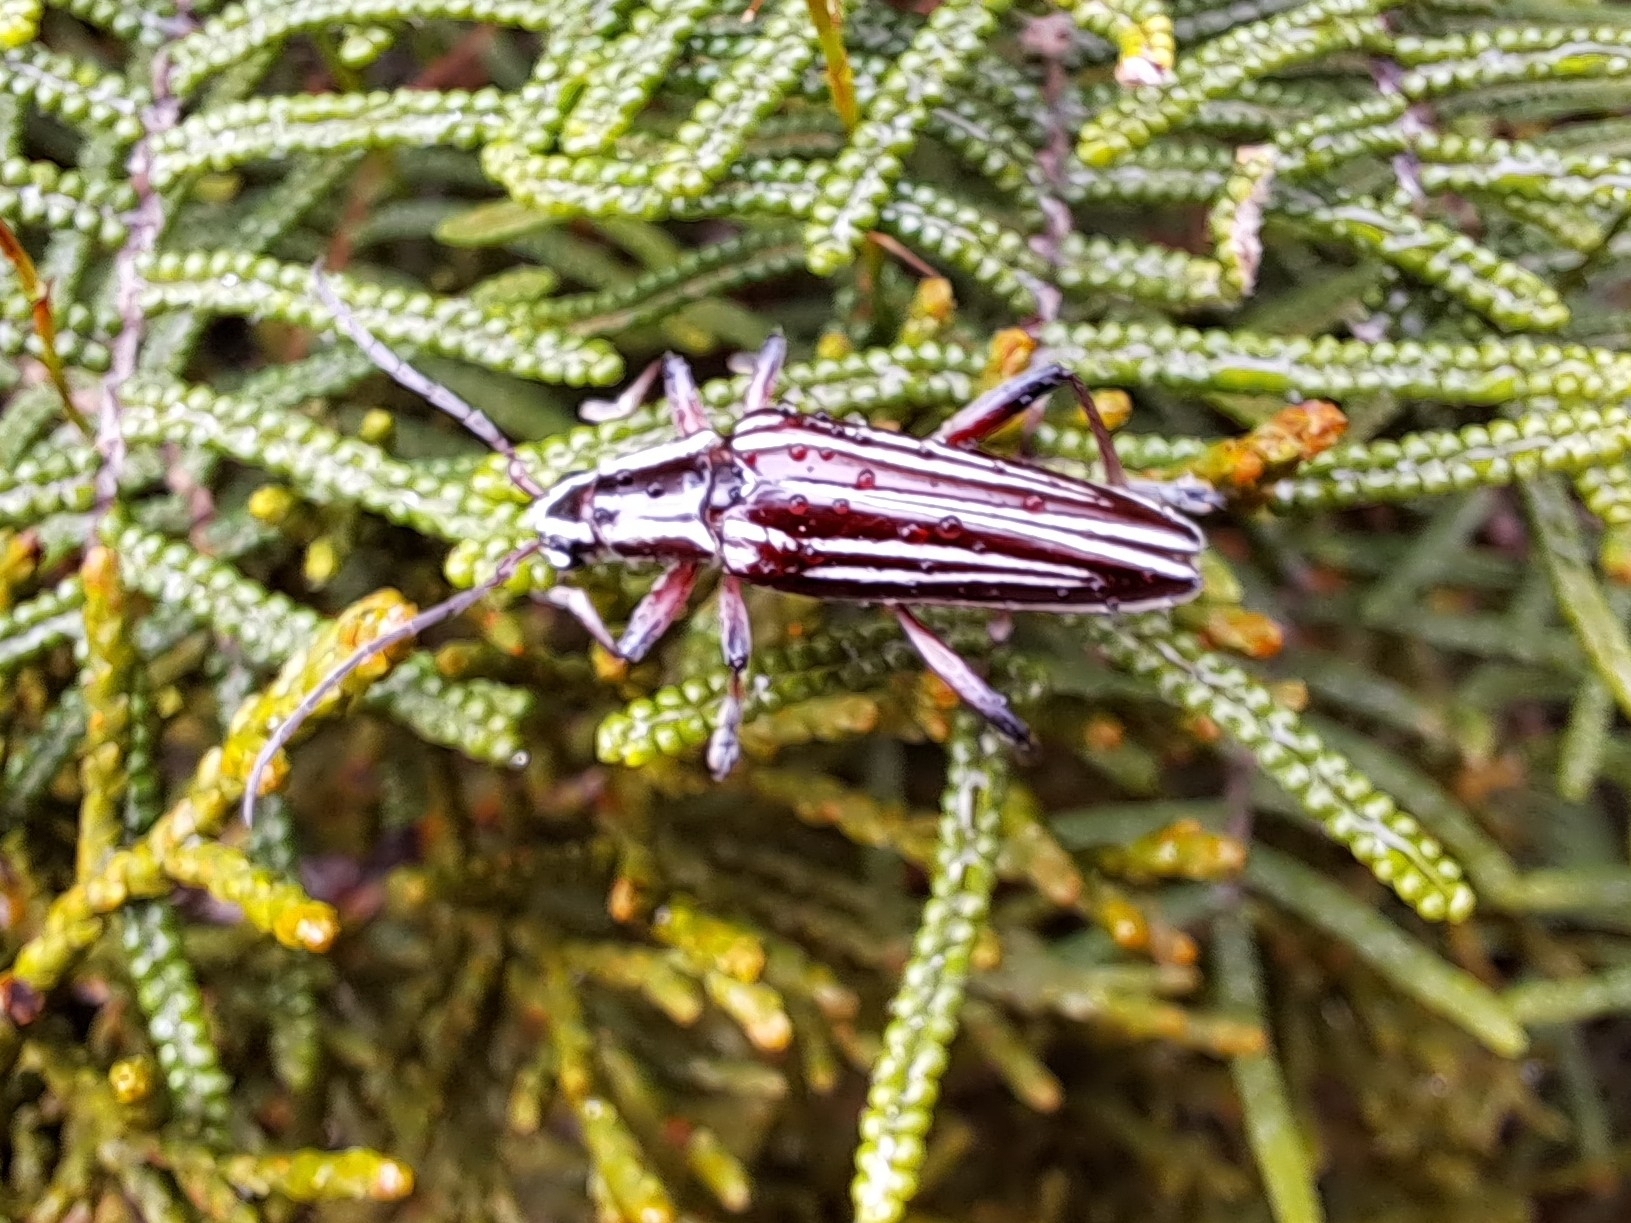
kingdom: Animalia
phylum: Arthropoda
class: Insecta
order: Coleoptera
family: Cerambycidae
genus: Coptomma
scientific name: Coptomma lineatum
